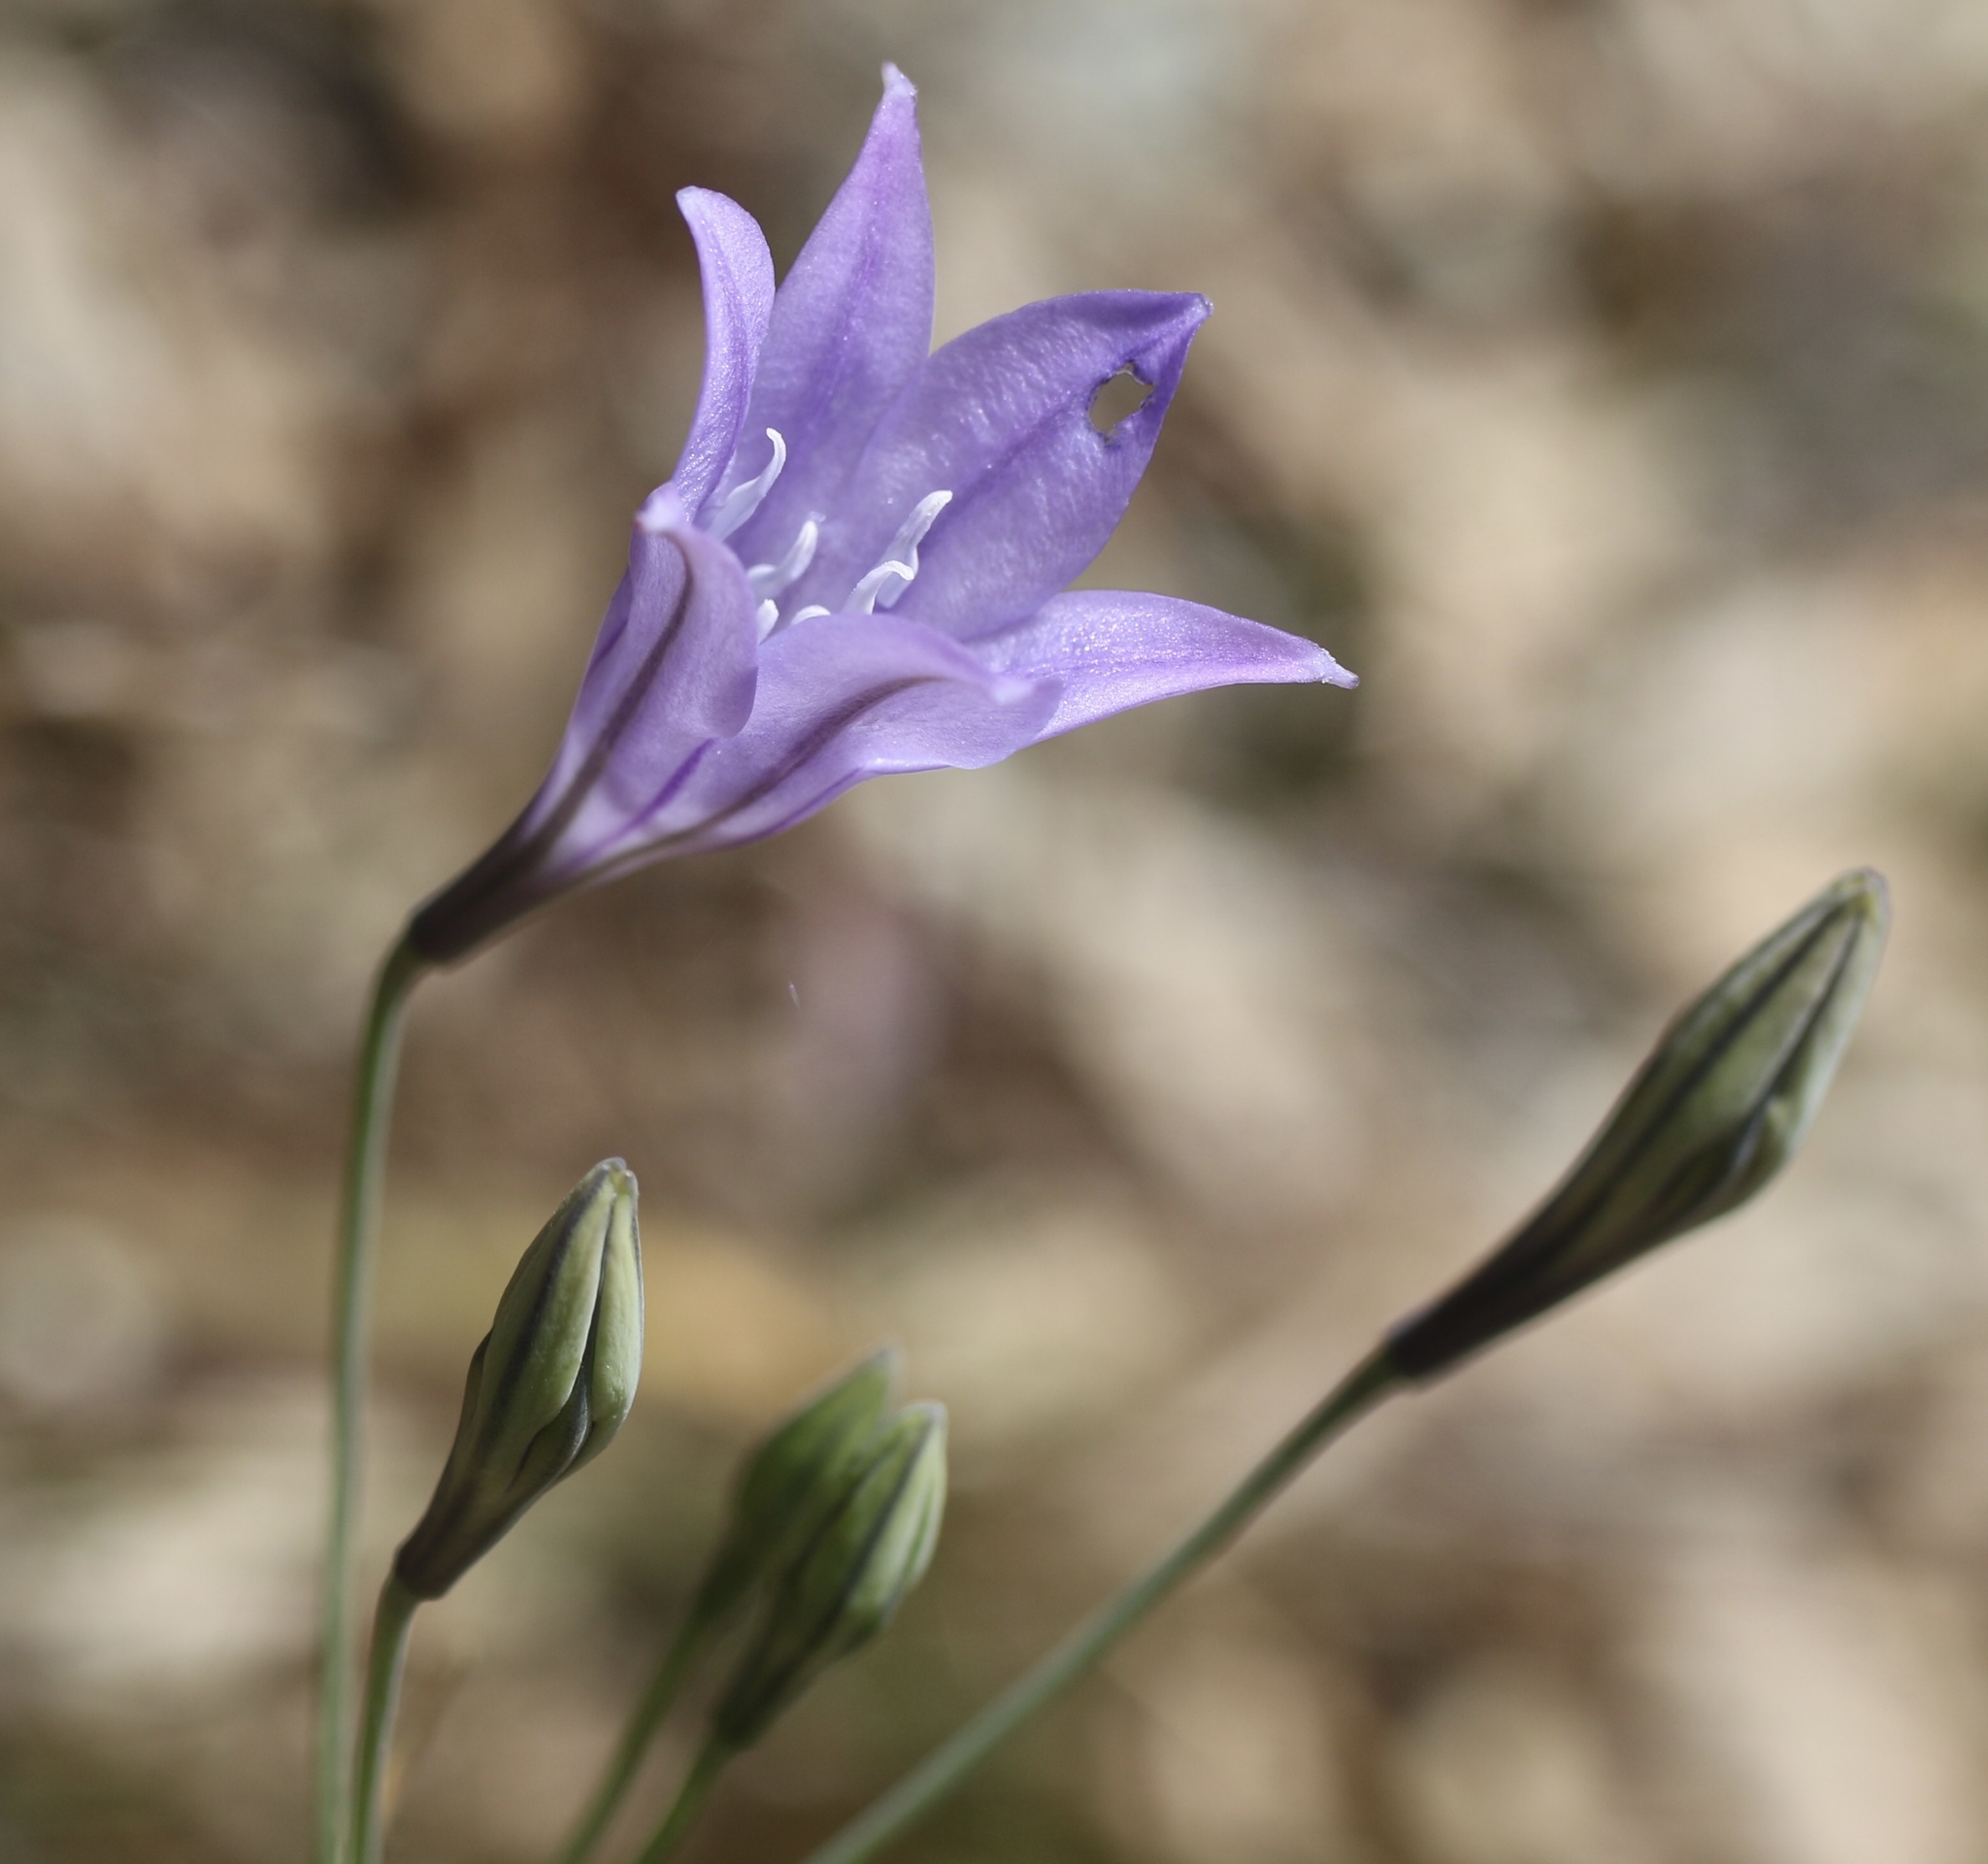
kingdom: Plantae
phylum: Tracheophyta
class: Liliopsida
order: Asparagales
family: Asparagaceae
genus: Triteleia
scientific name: Triteleia laxa
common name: Triplet-lily
